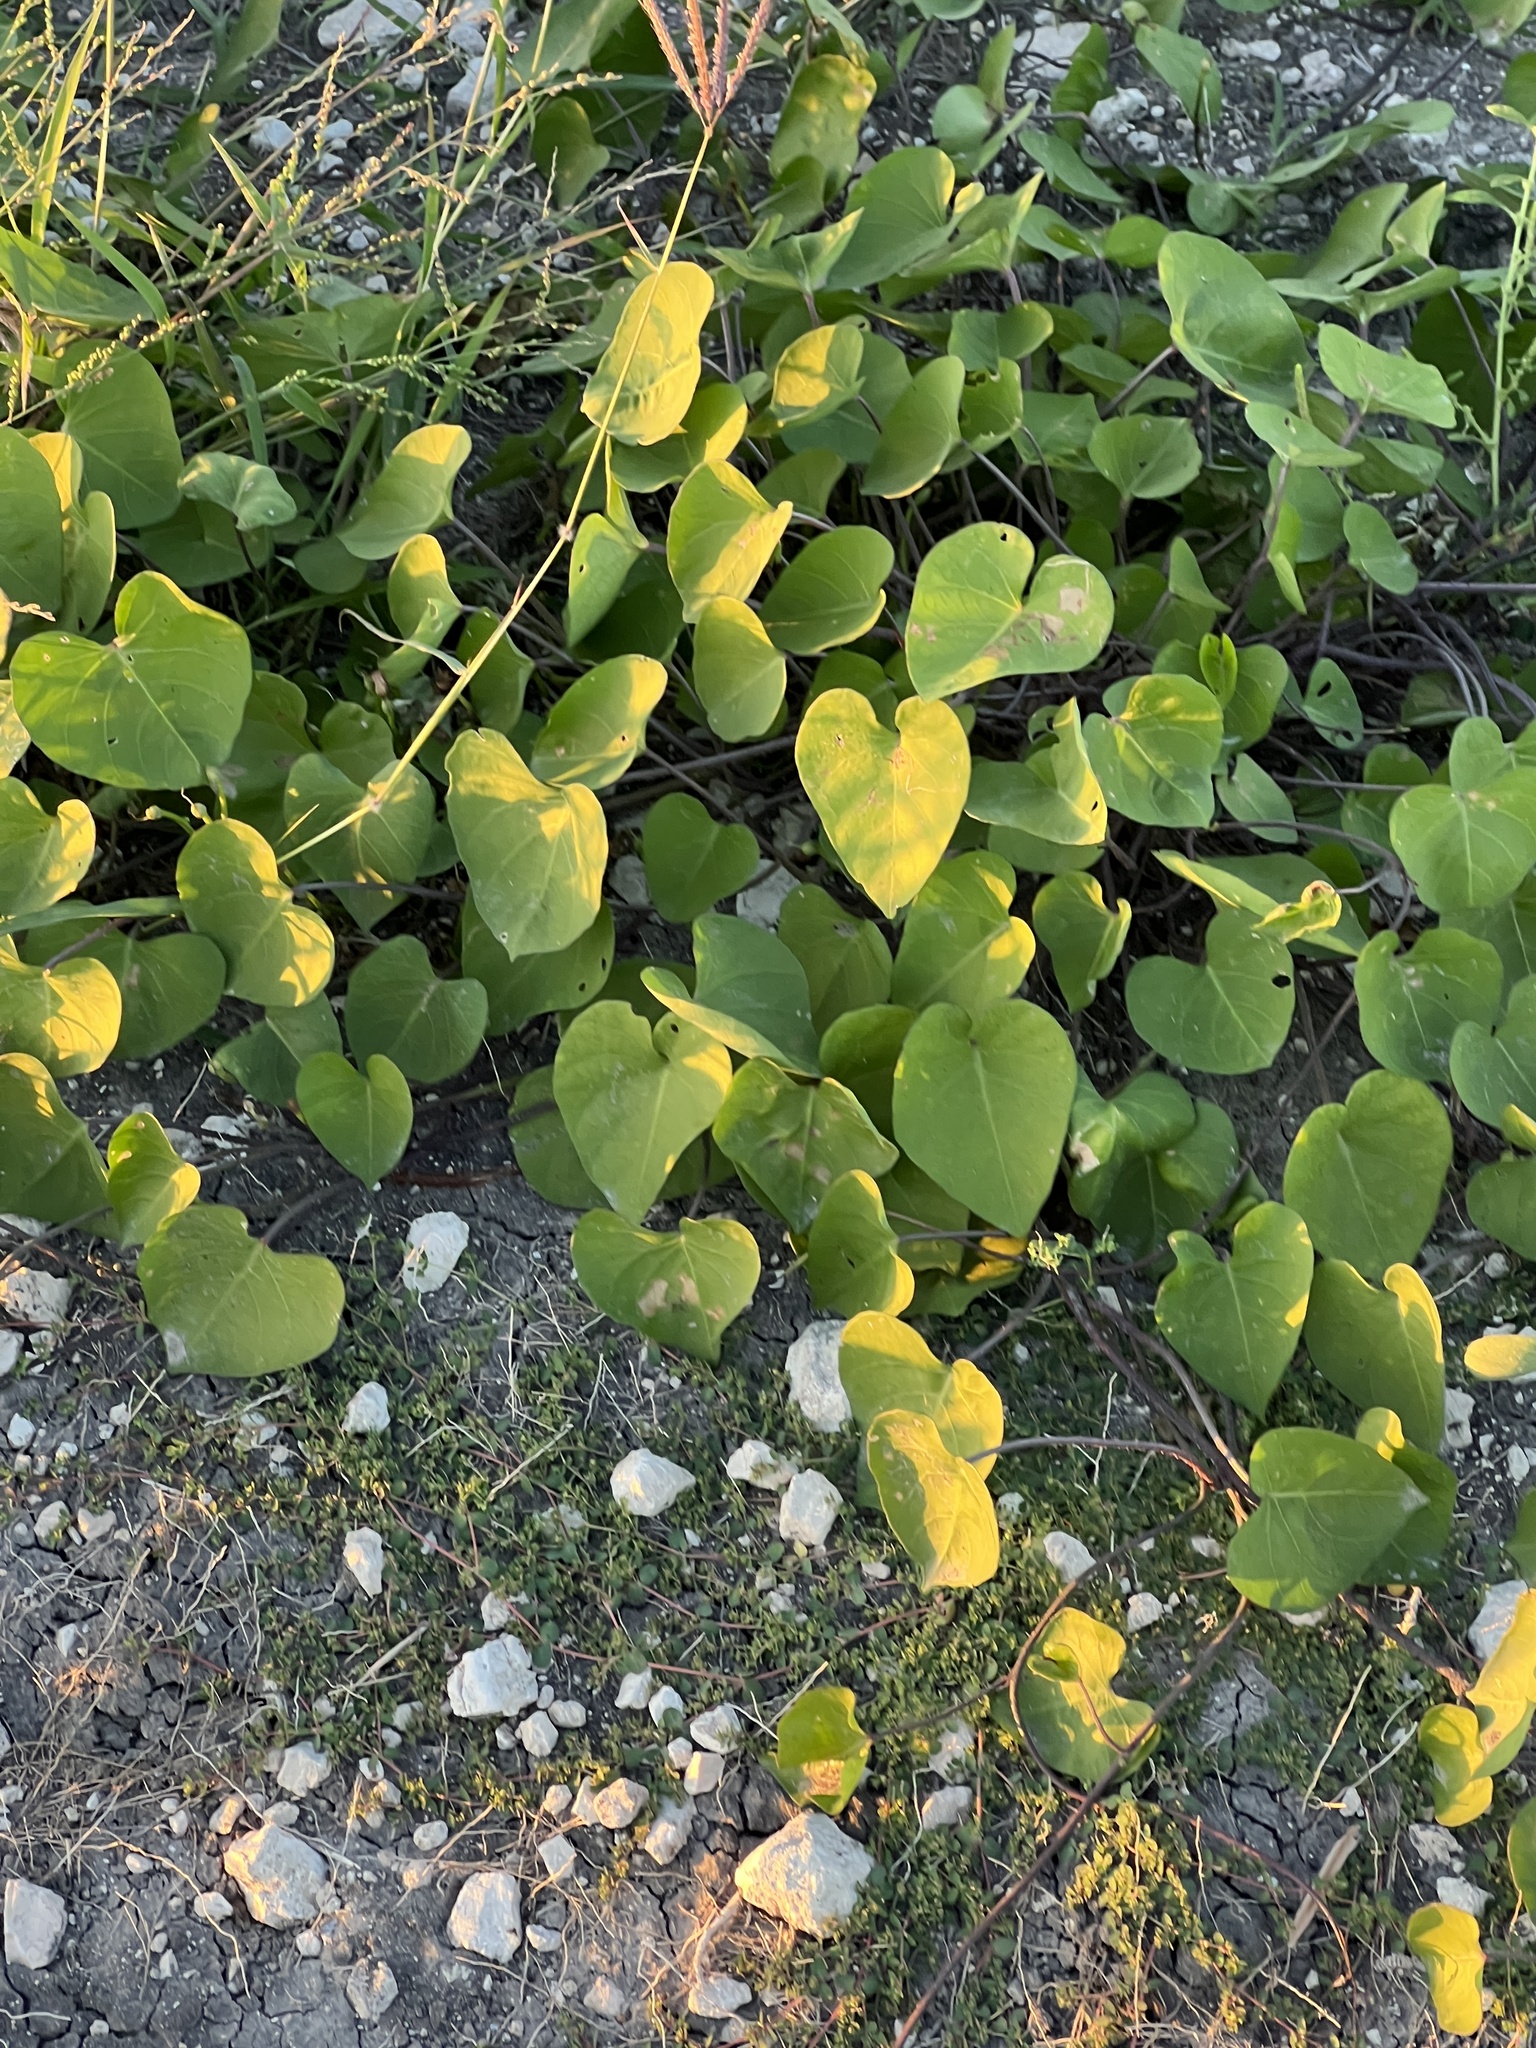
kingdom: Plantae
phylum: Tracheophyta
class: Magnoliopsida
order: Solanales
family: Convolvulaceae
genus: Ipomoea
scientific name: Ipomoea amnicola
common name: Redcenter morning-glory
